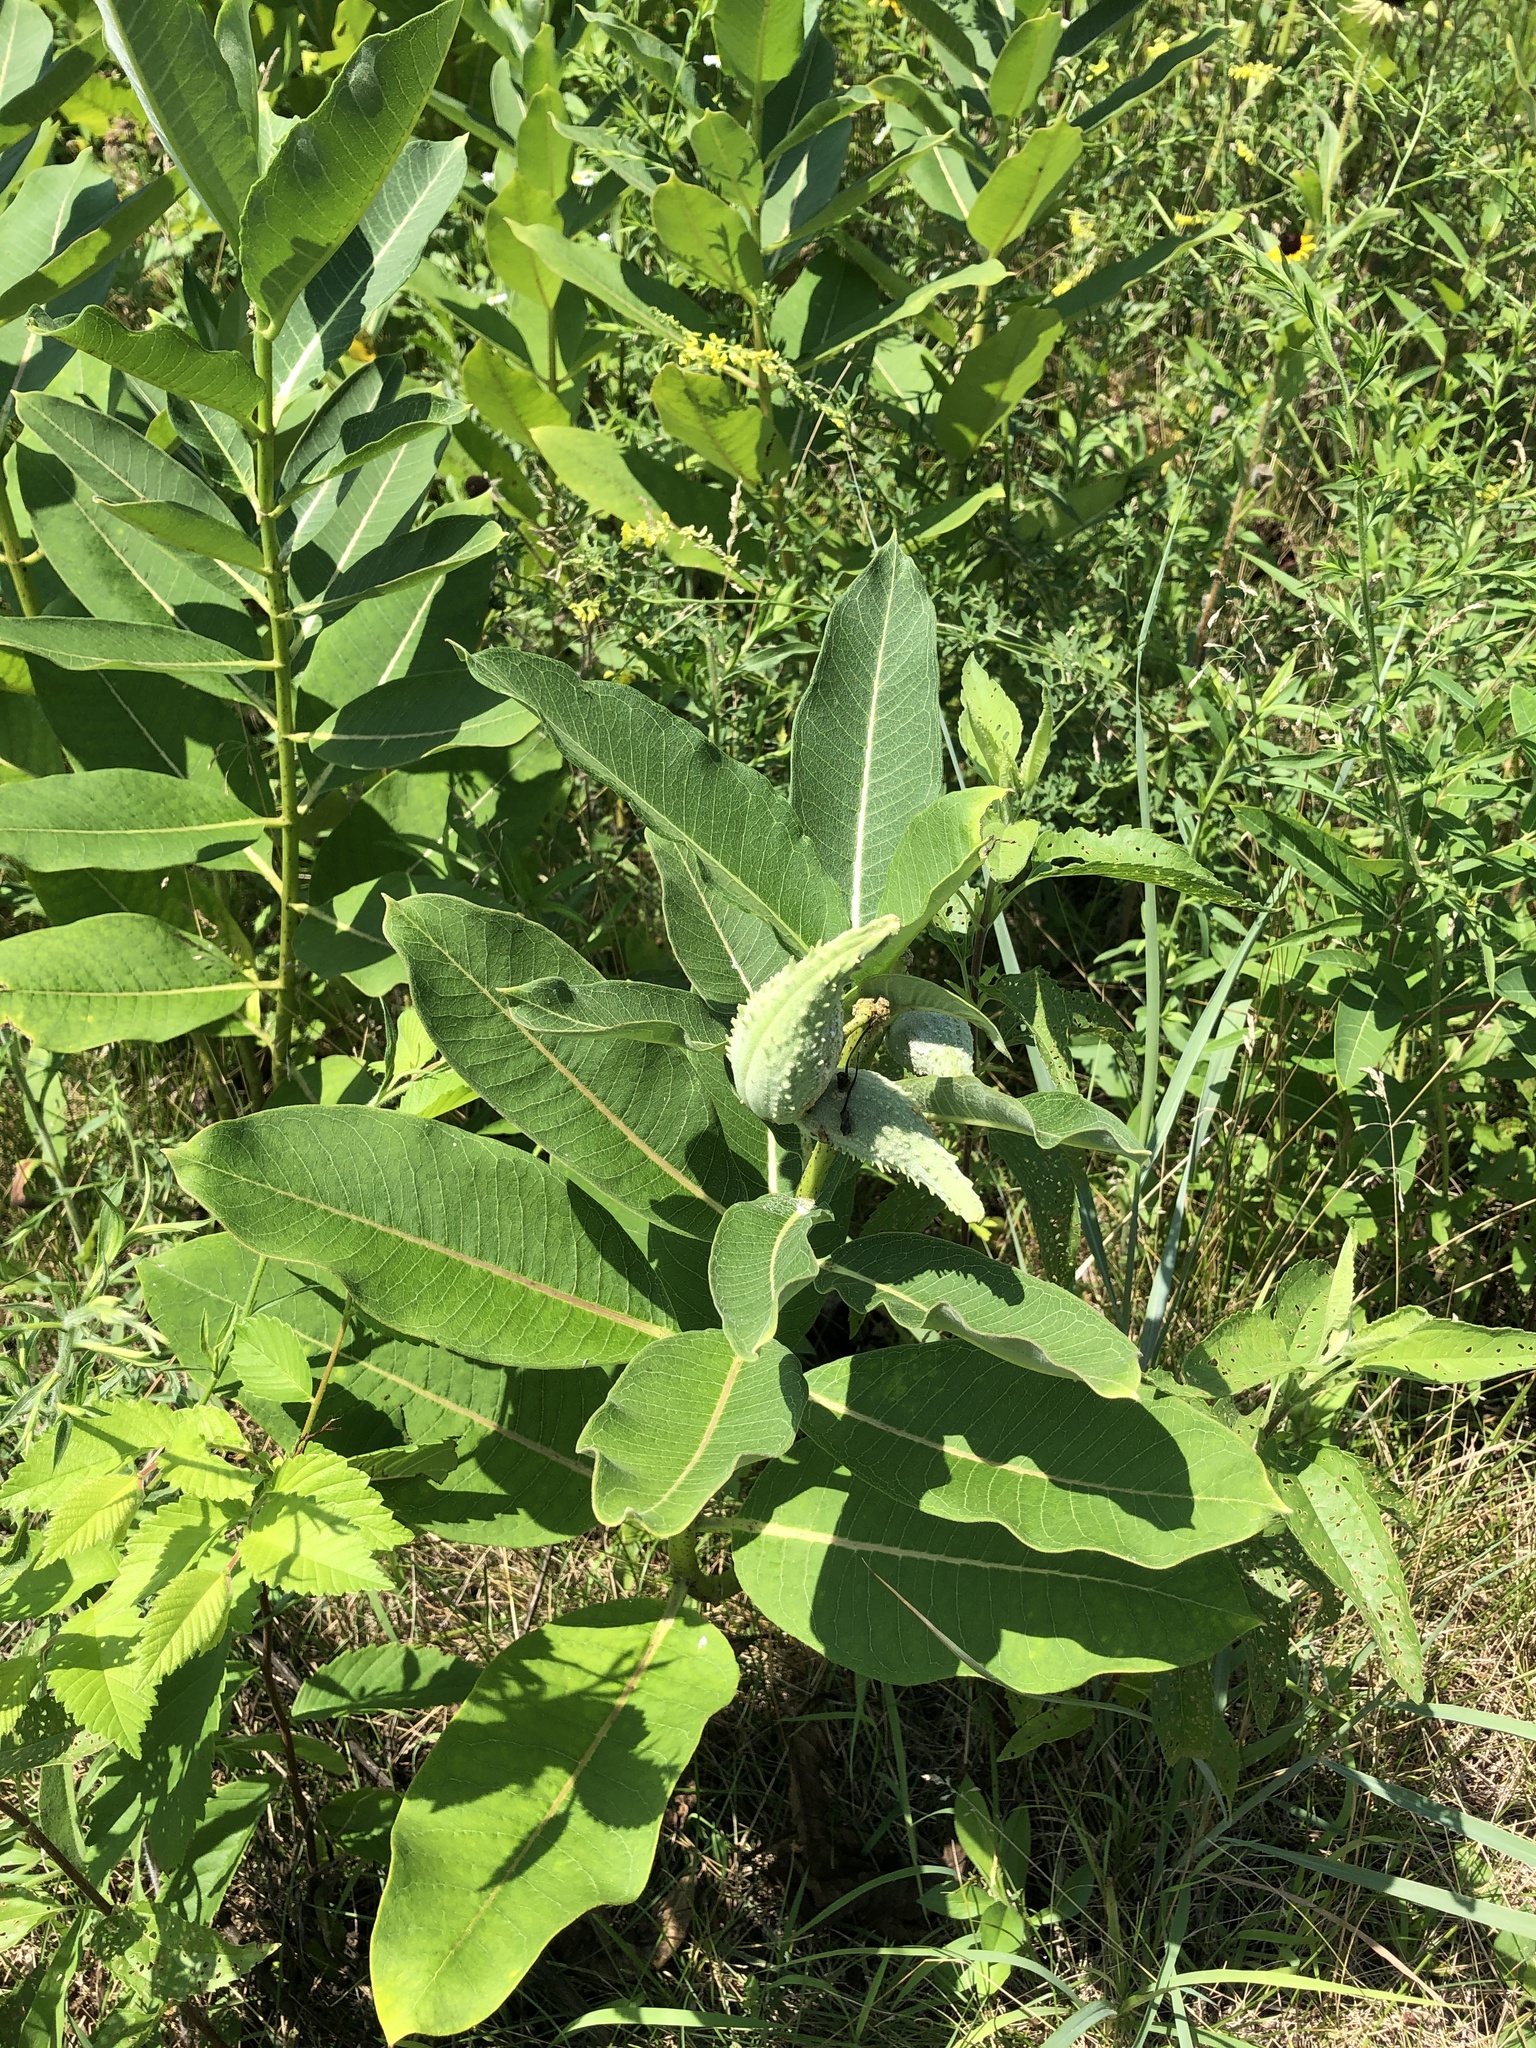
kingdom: Plantae
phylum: Tracheophyta
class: Magnoliopsida
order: Gentianales
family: Apocynaceae
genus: Asclepias
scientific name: Asclepias syriaca
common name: Common milkweed
